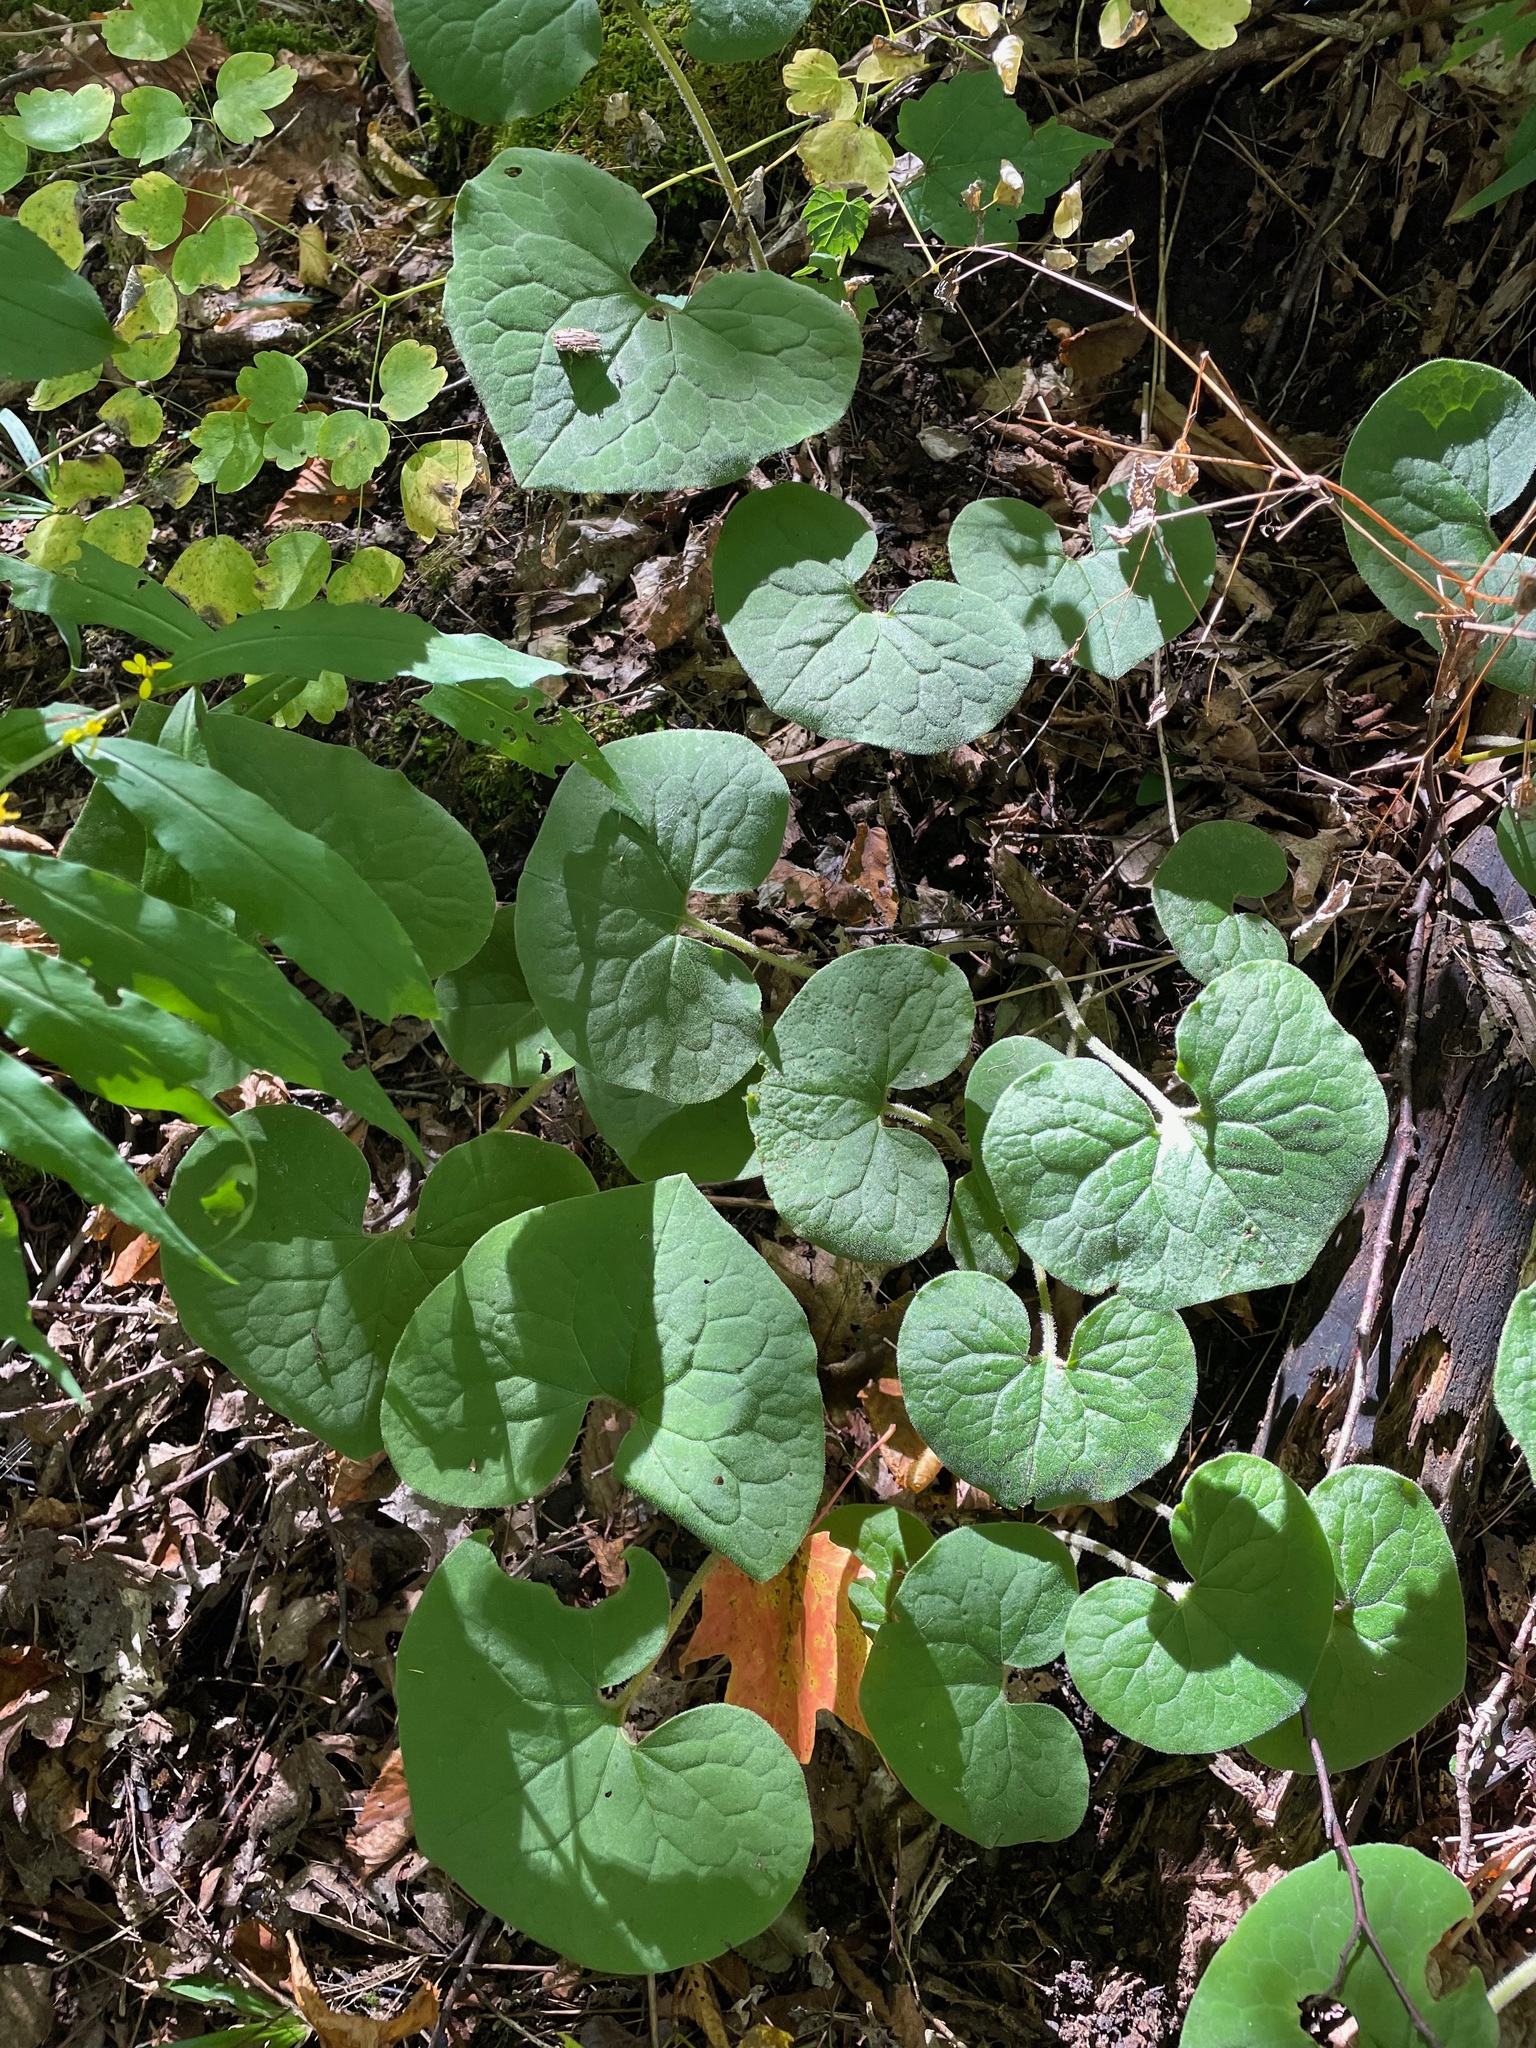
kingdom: Plantae
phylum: Tracheophyta
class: Magnoliopsida
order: Piperales
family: Aristolochiaceae
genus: Asarum
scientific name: Asarum canadense
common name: Wild ginger
